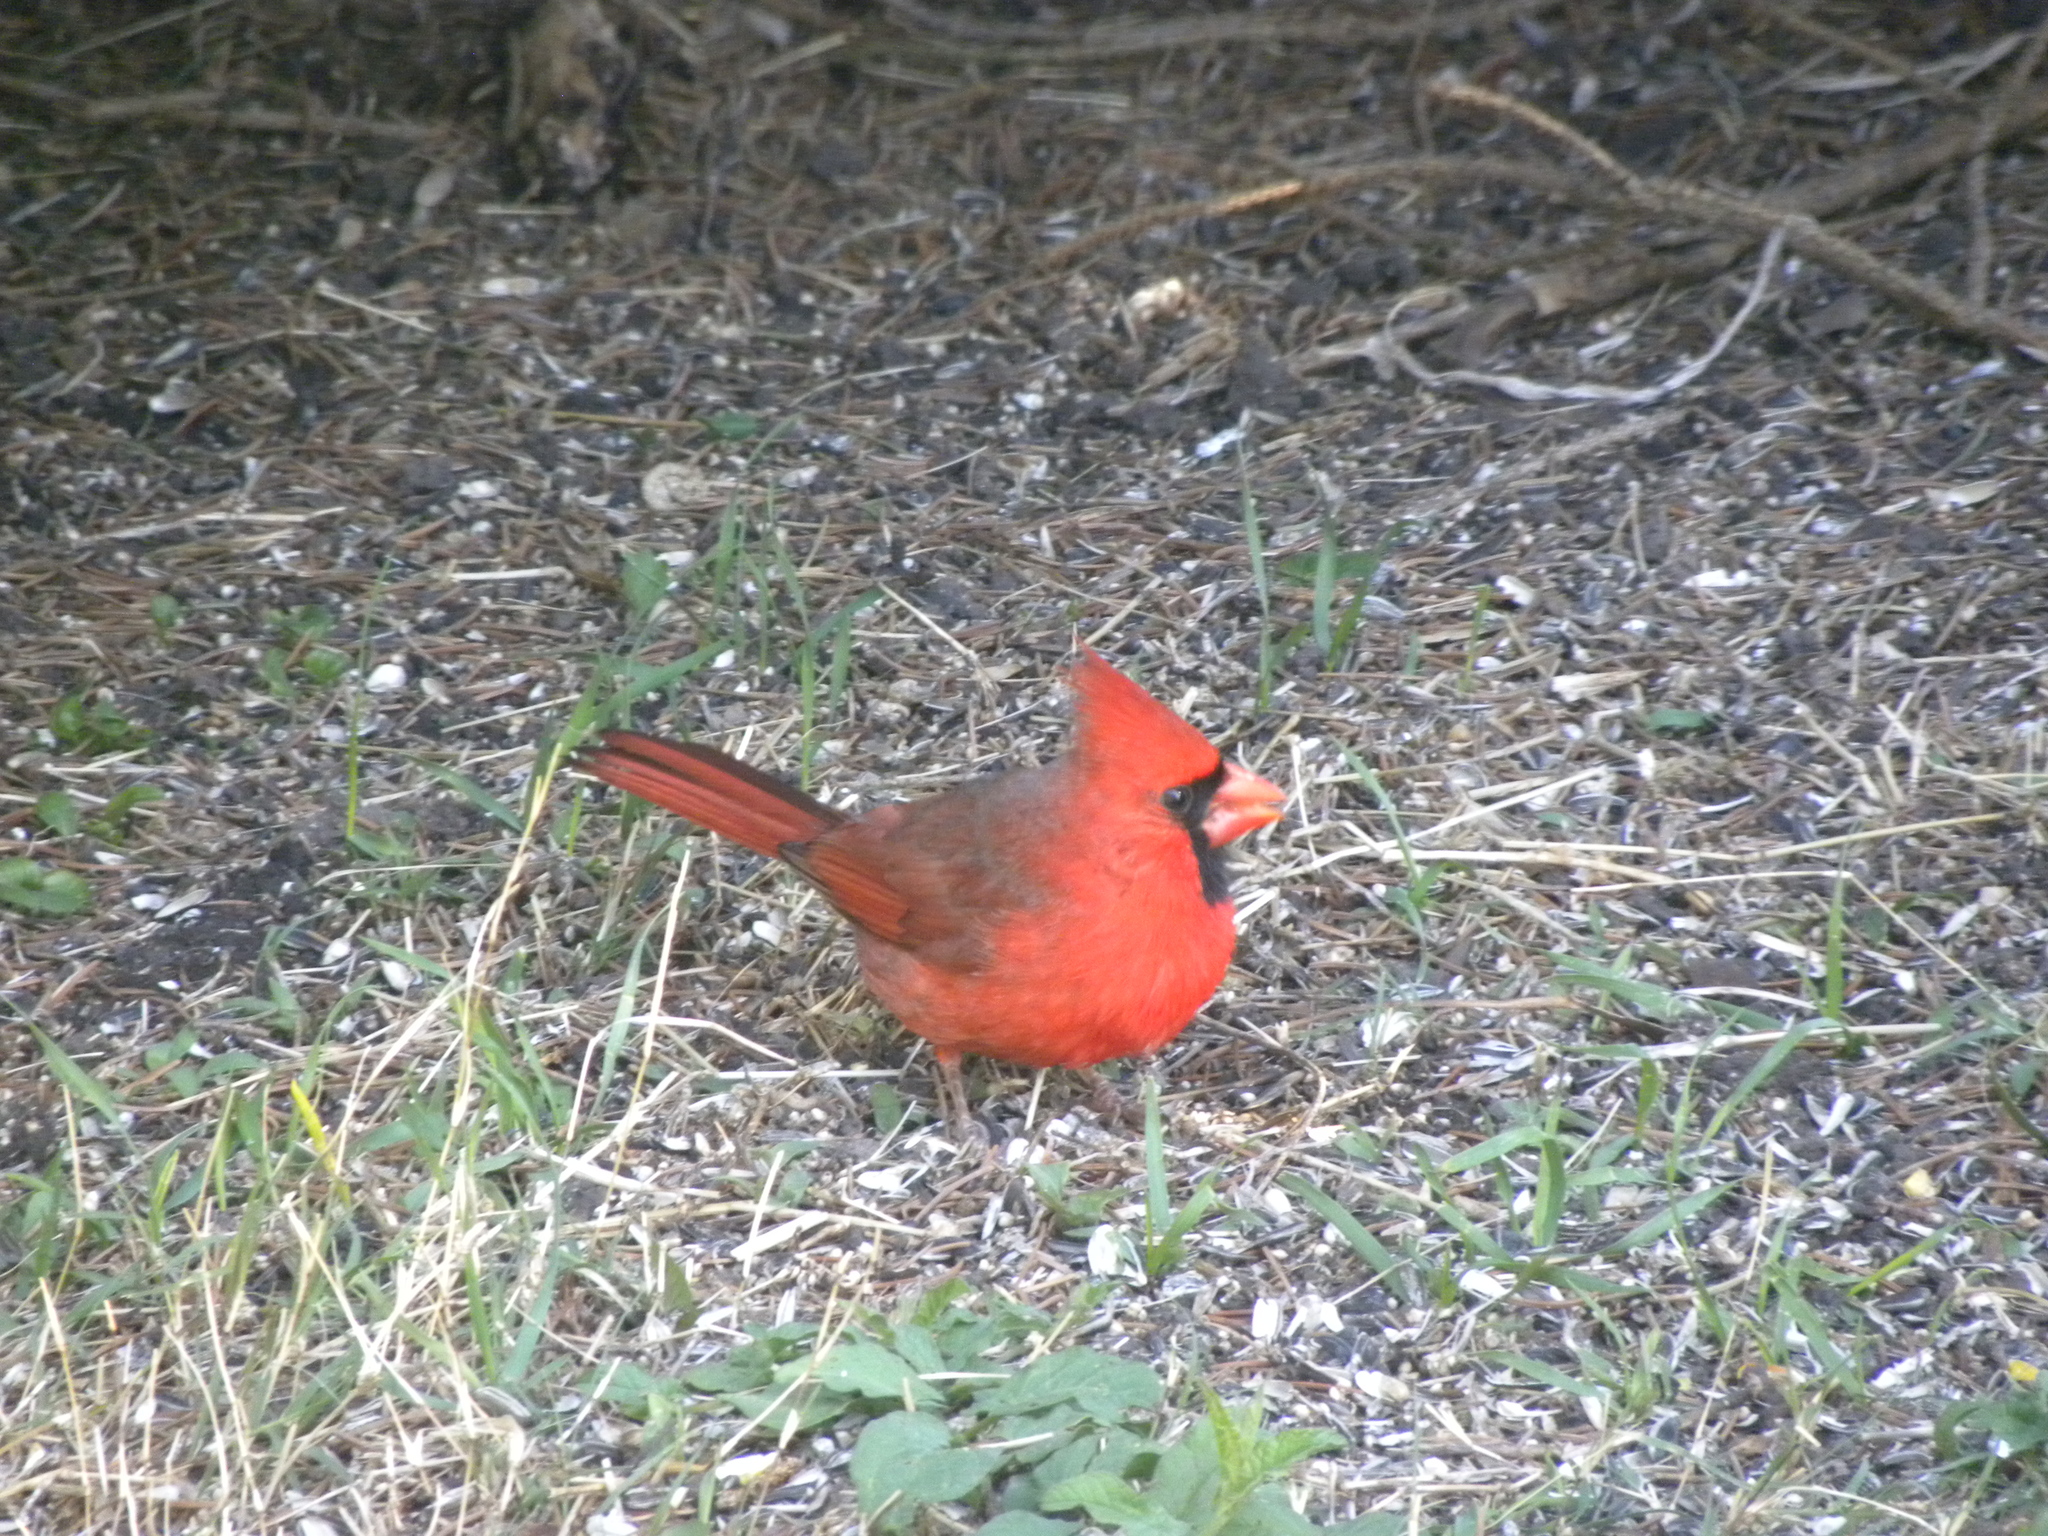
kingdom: Animalia
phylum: Chordata
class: Aves
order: Passeriformes
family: Cardinalidae
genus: Cardinalis
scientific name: Cardinalis cardinalis
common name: Northern cardinal
